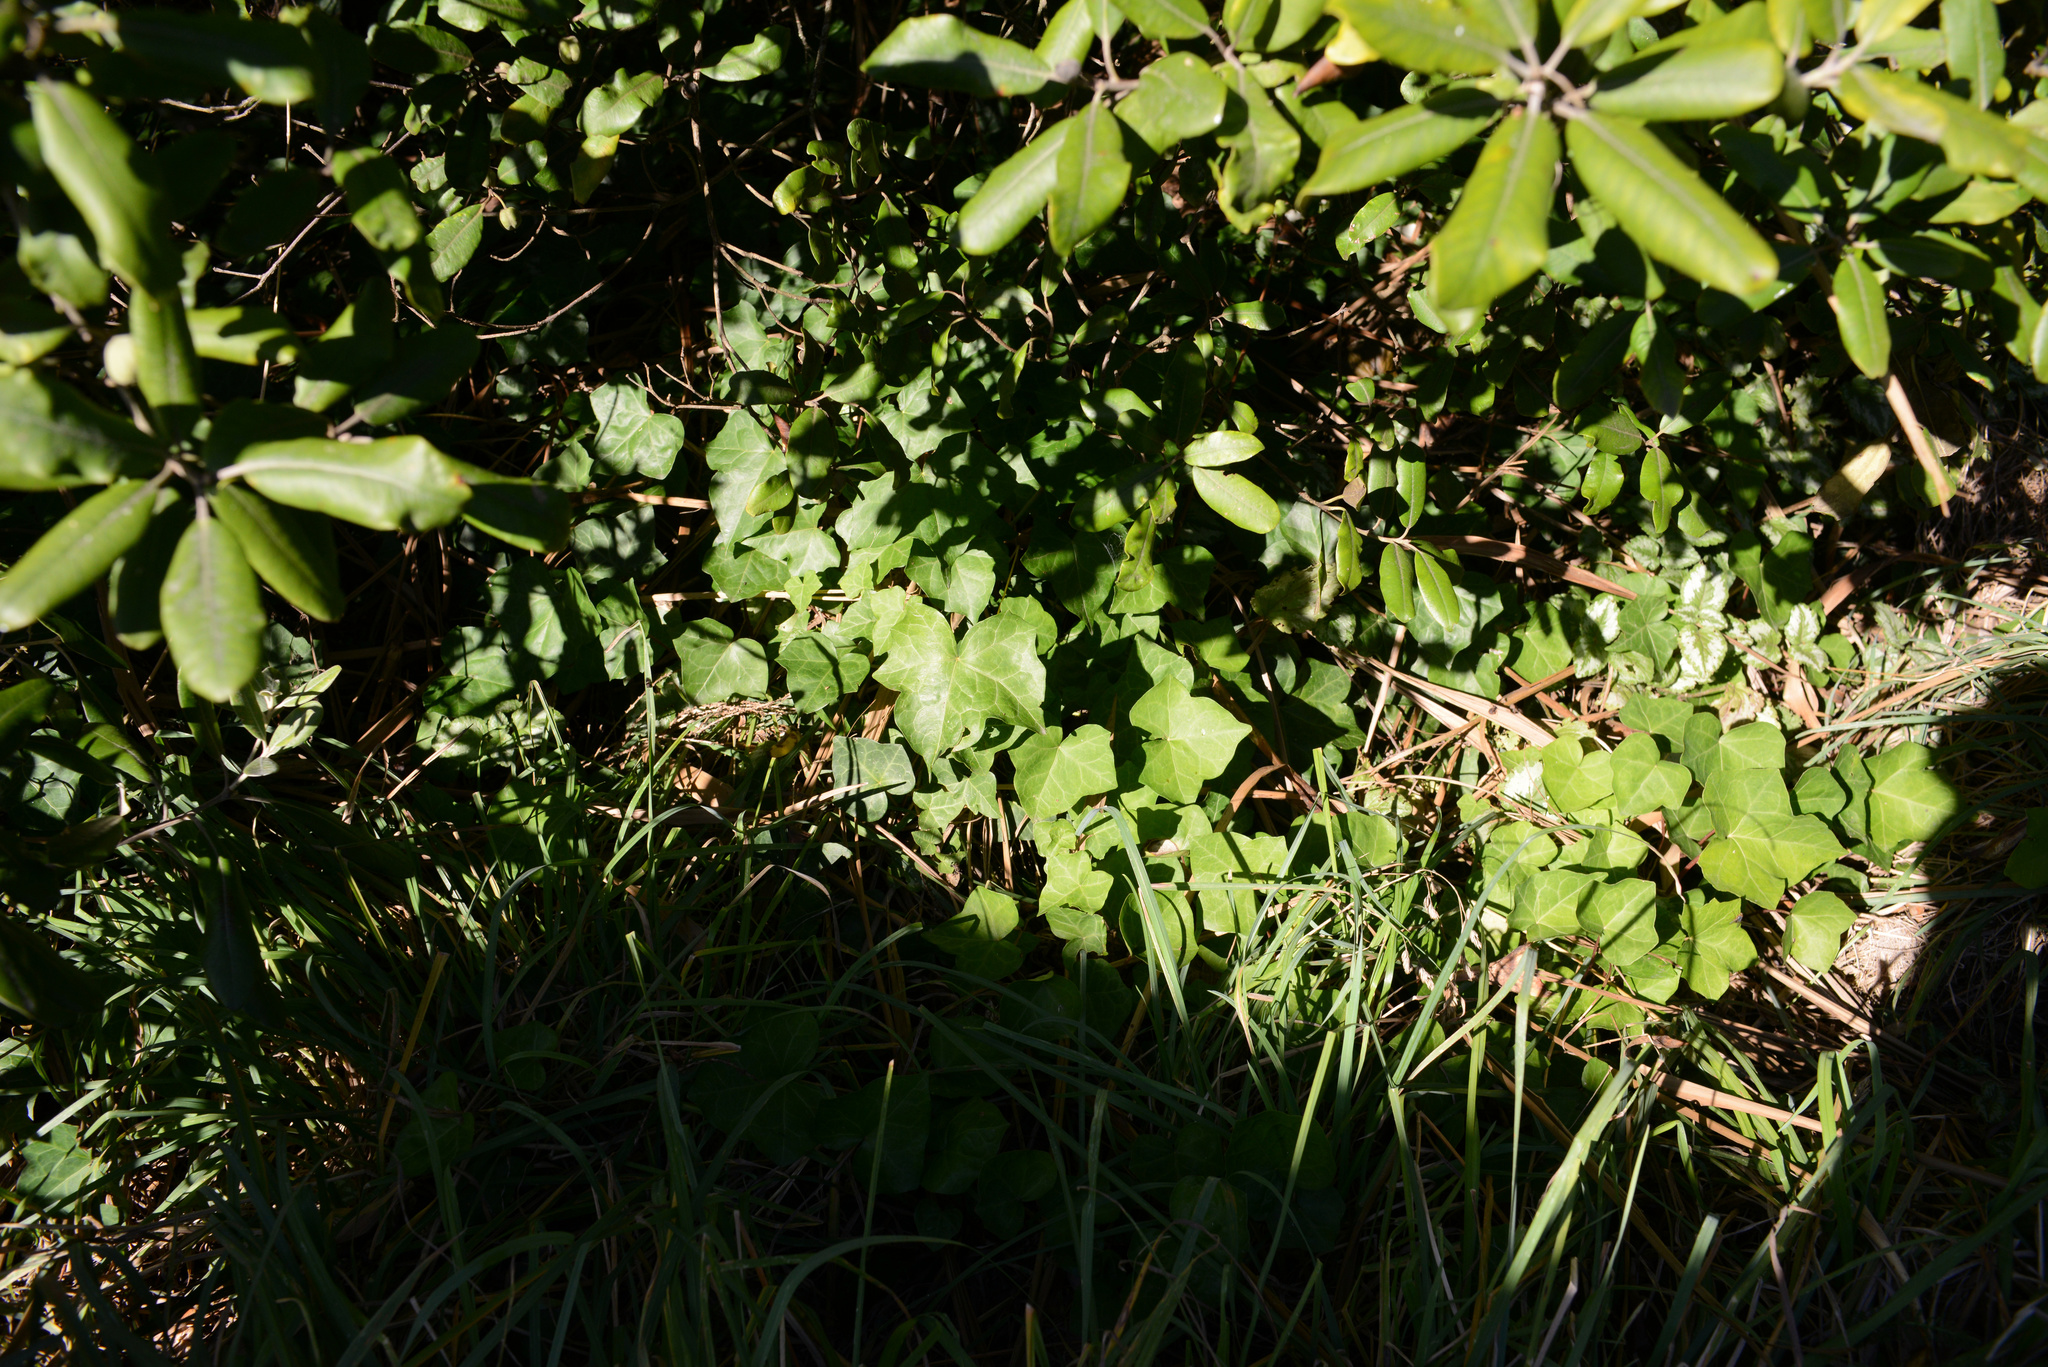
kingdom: Plantae
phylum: Tracheophyta
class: Magnoliopsida
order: Apiales
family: Araliaceae
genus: Hedera
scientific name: Hedera helix
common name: Ivy
